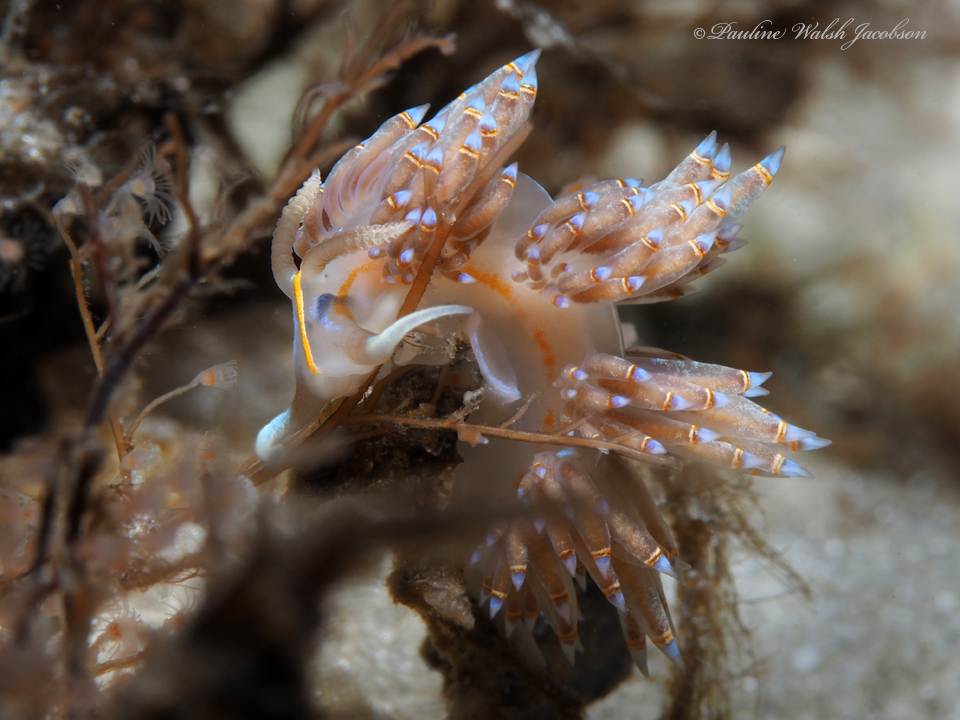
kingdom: Animalia
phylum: Mollusca
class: Gastropoda
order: Nudibranchia
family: Myrrhinidae
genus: Dondice
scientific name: Dondice jupiteriensis
